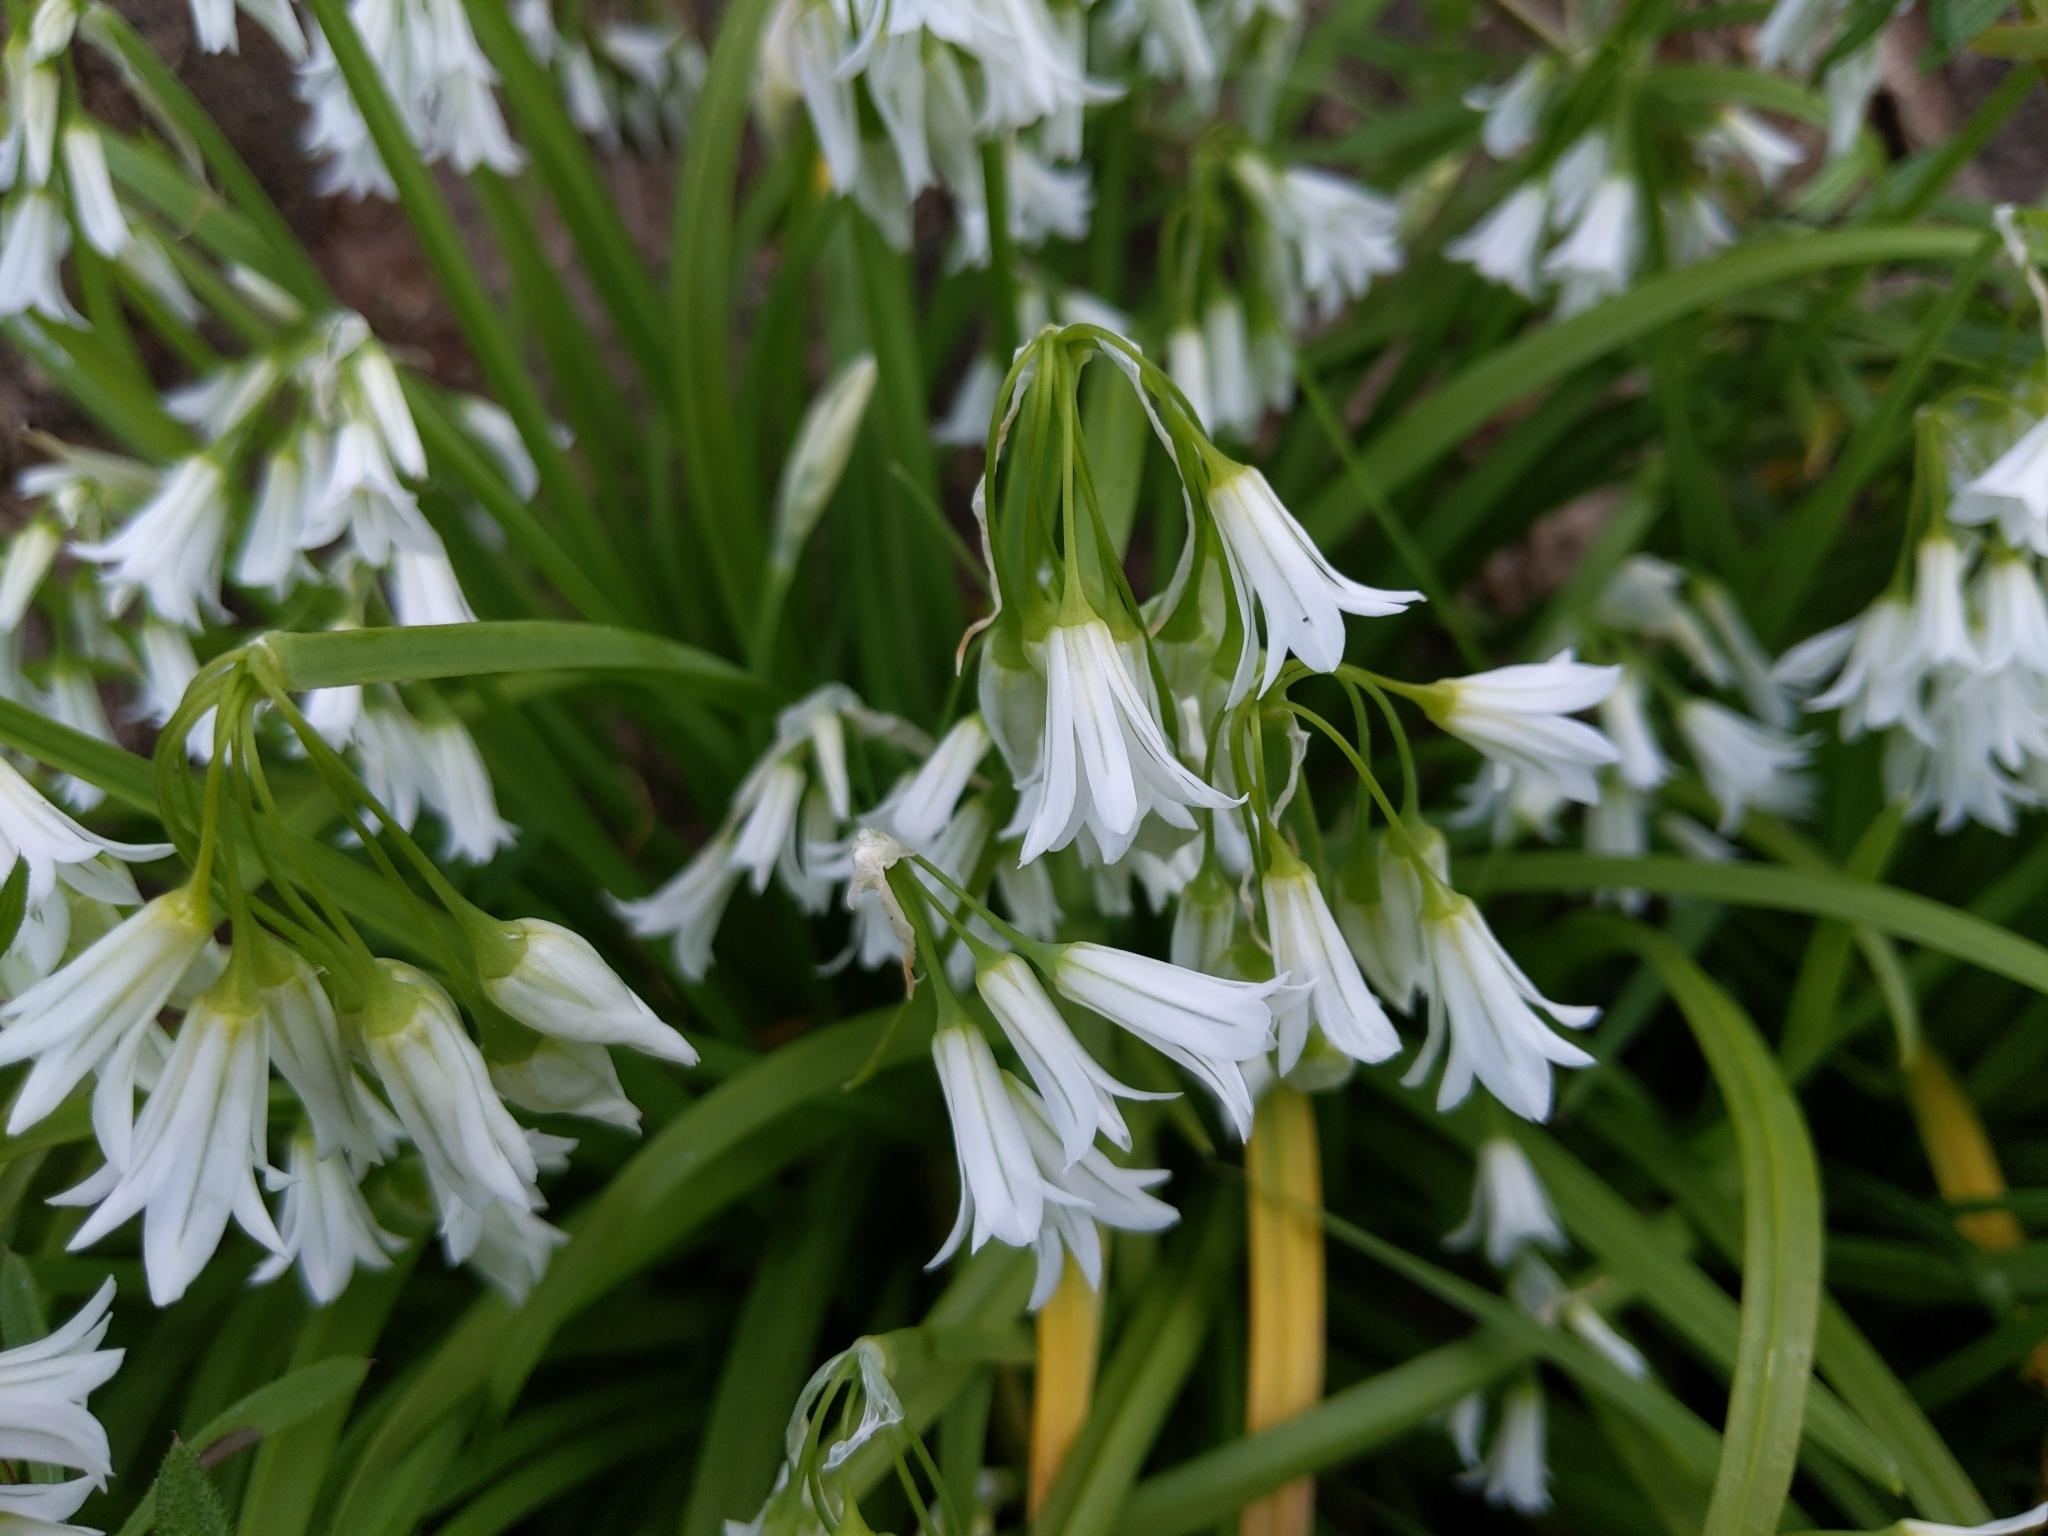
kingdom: Plantae
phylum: Tracheophyta
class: Liliopsida
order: Asparagales
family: Amaryllidaceae
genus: Allium
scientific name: Allium triquetrum
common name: Three-cornered garlic
